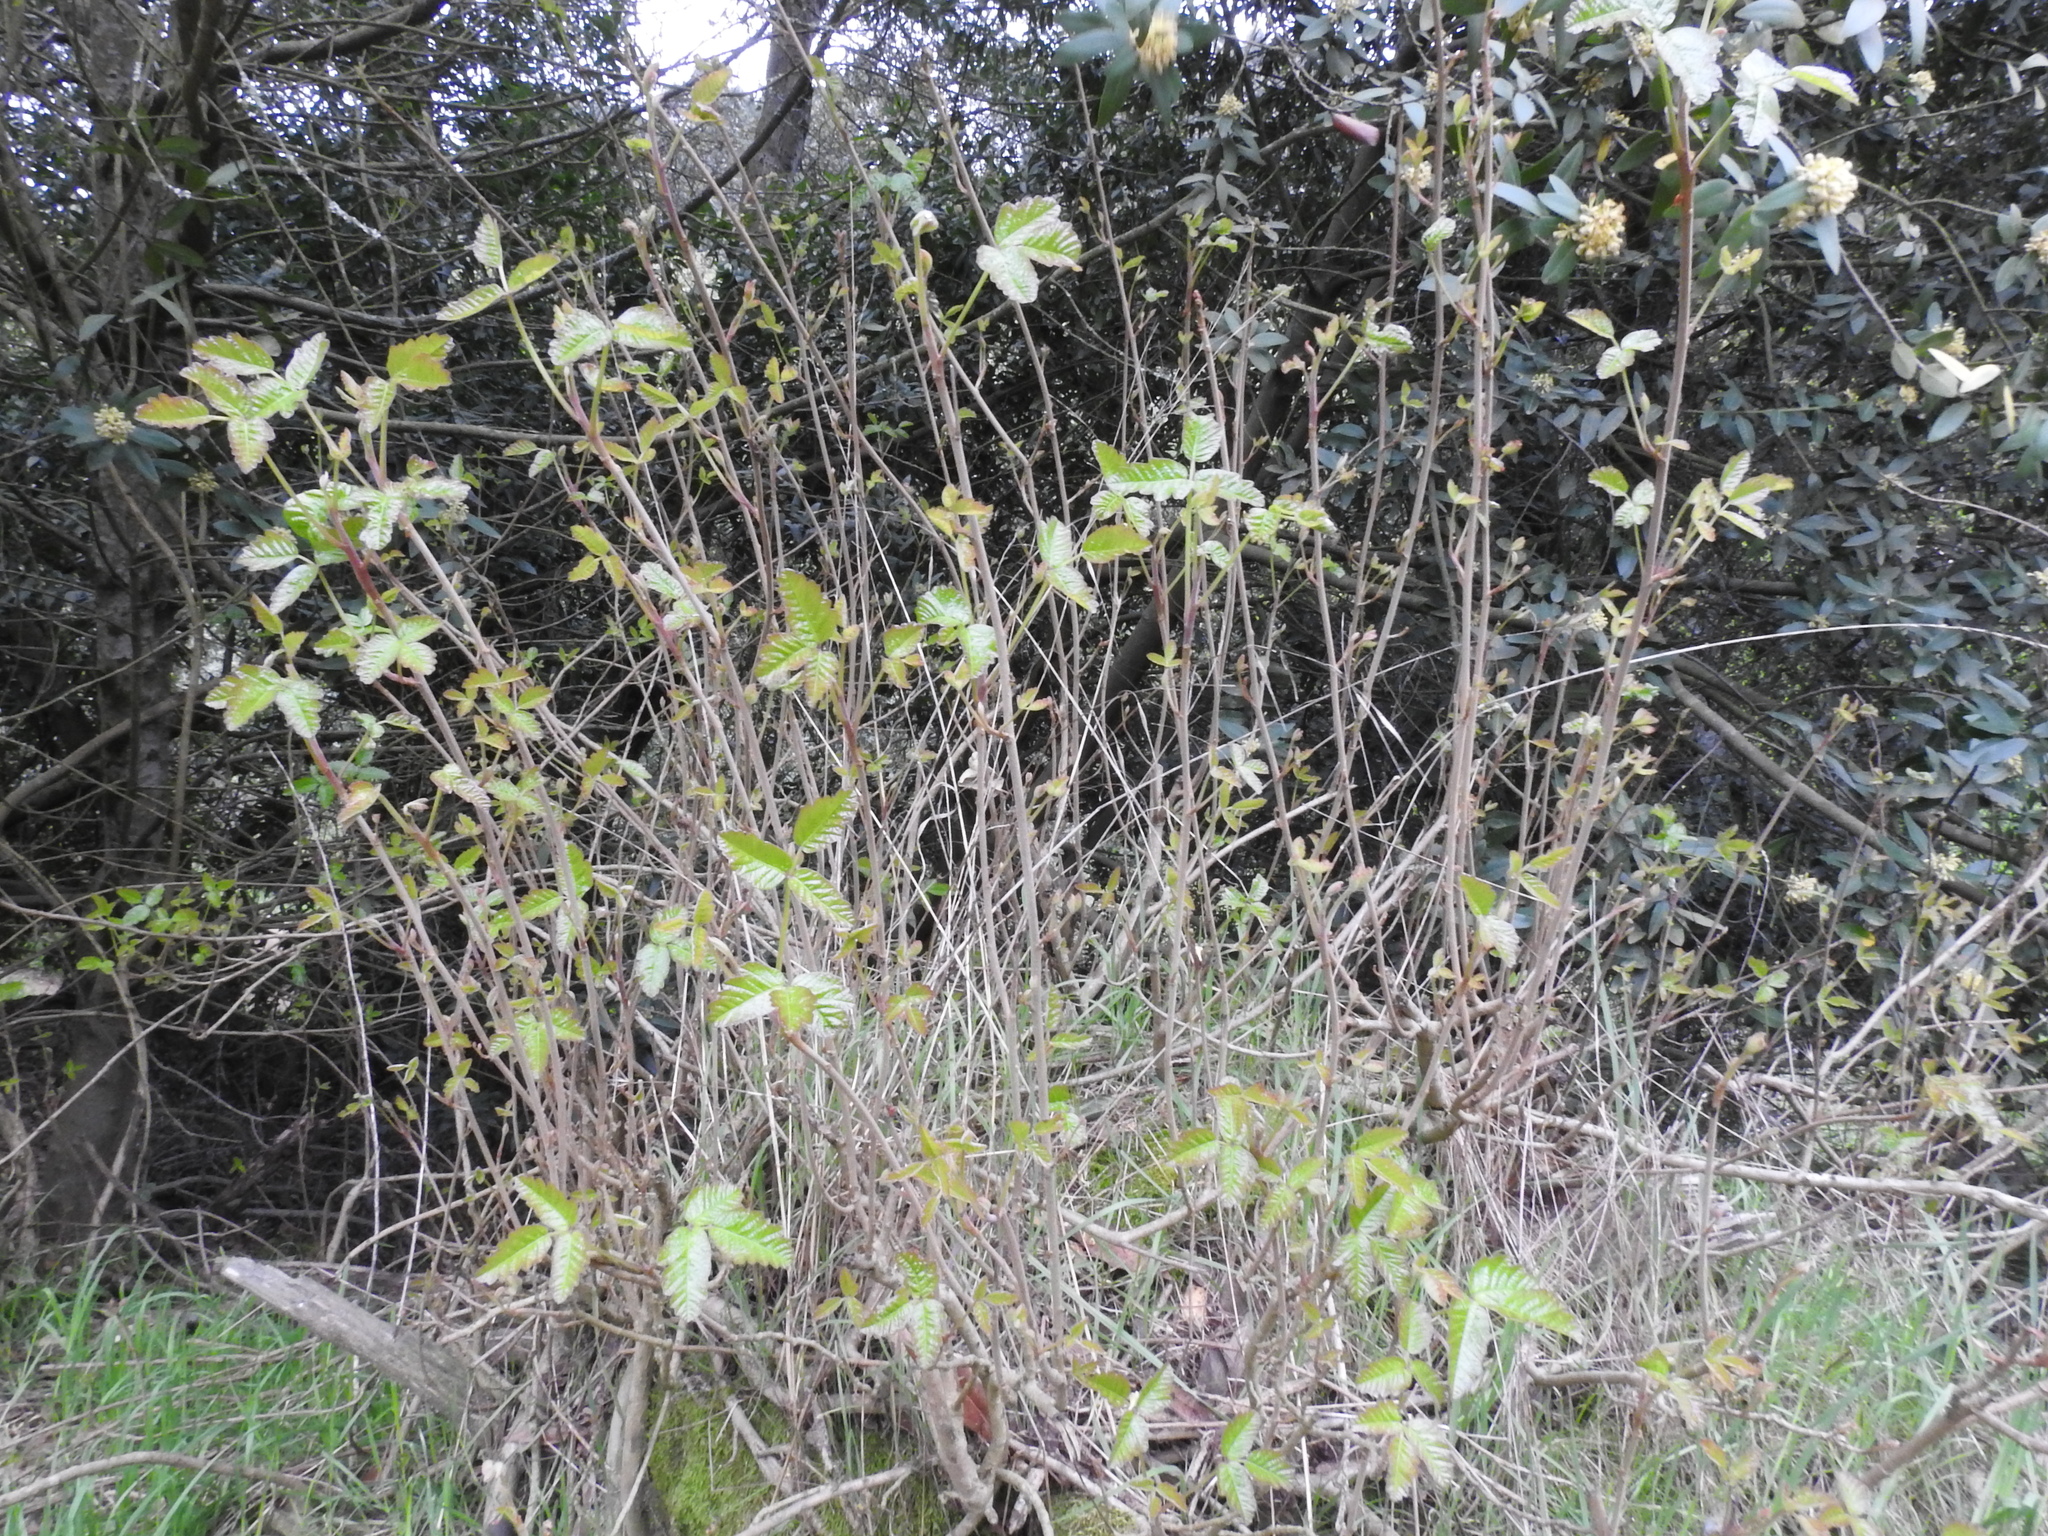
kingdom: Plantae
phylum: Tracheophyta
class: Magnoliopsida
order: Sapindales
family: Anacardiaceae
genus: Toxicodendron
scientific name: Toxicodendron diversilobum
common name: Pacific poison-oak
